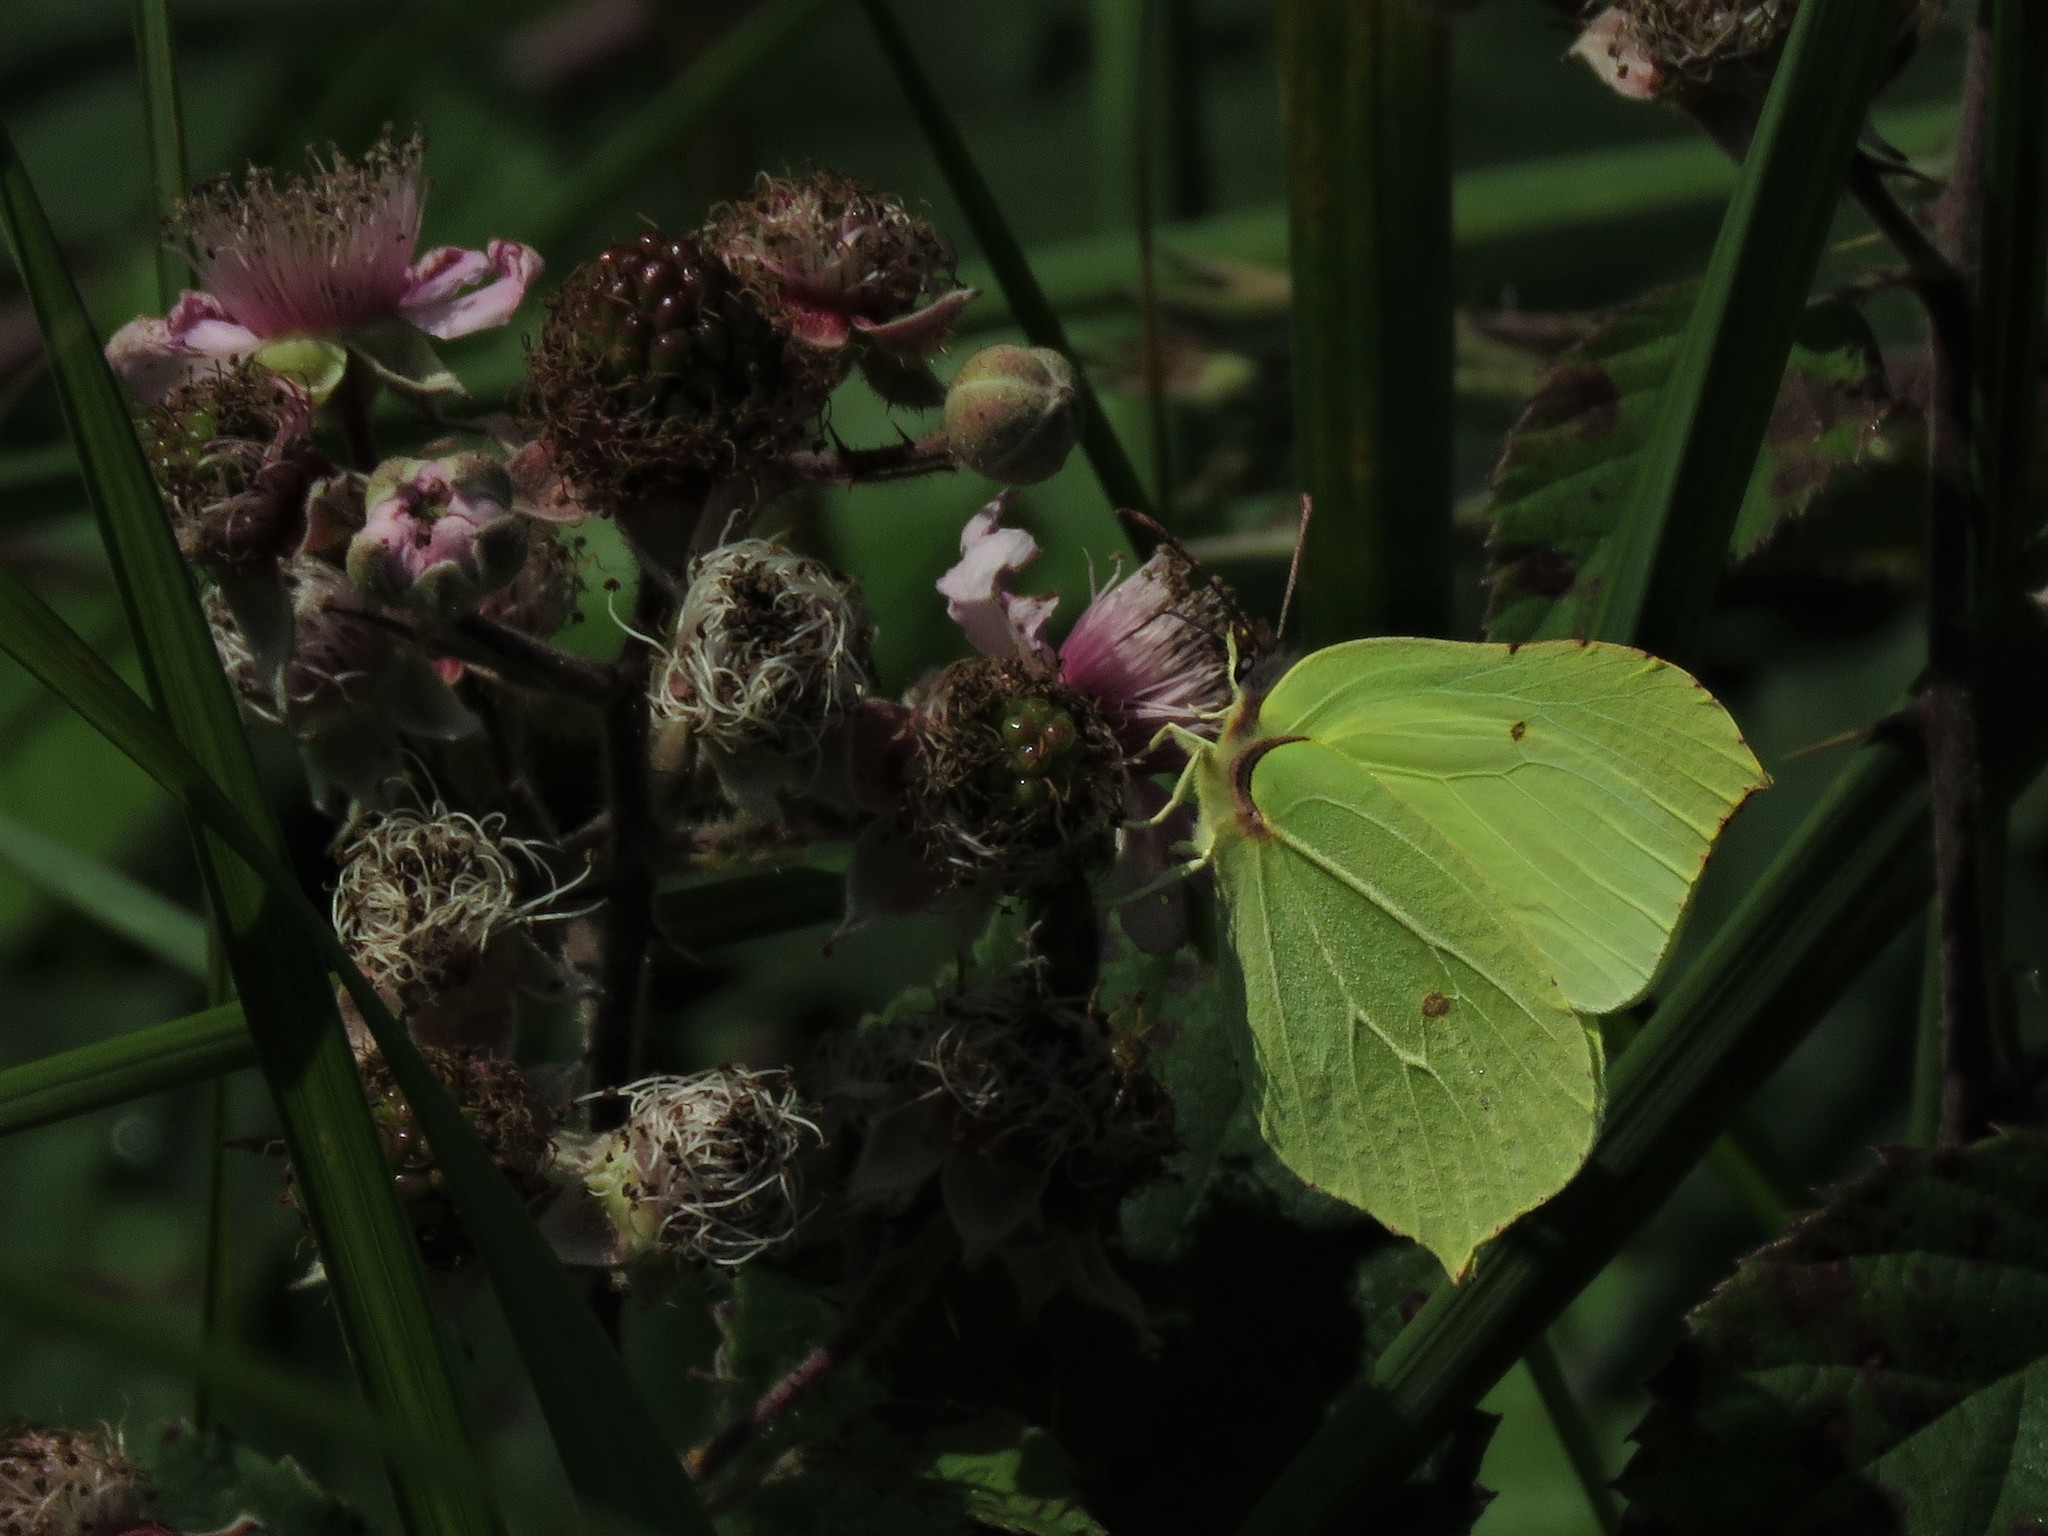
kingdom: Animalia
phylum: Arthropoda
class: Insecta
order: Lepidoptera
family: Pieridae
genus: Gonepteryx
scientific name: Gonepteryx rhamni
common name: Brimstone
